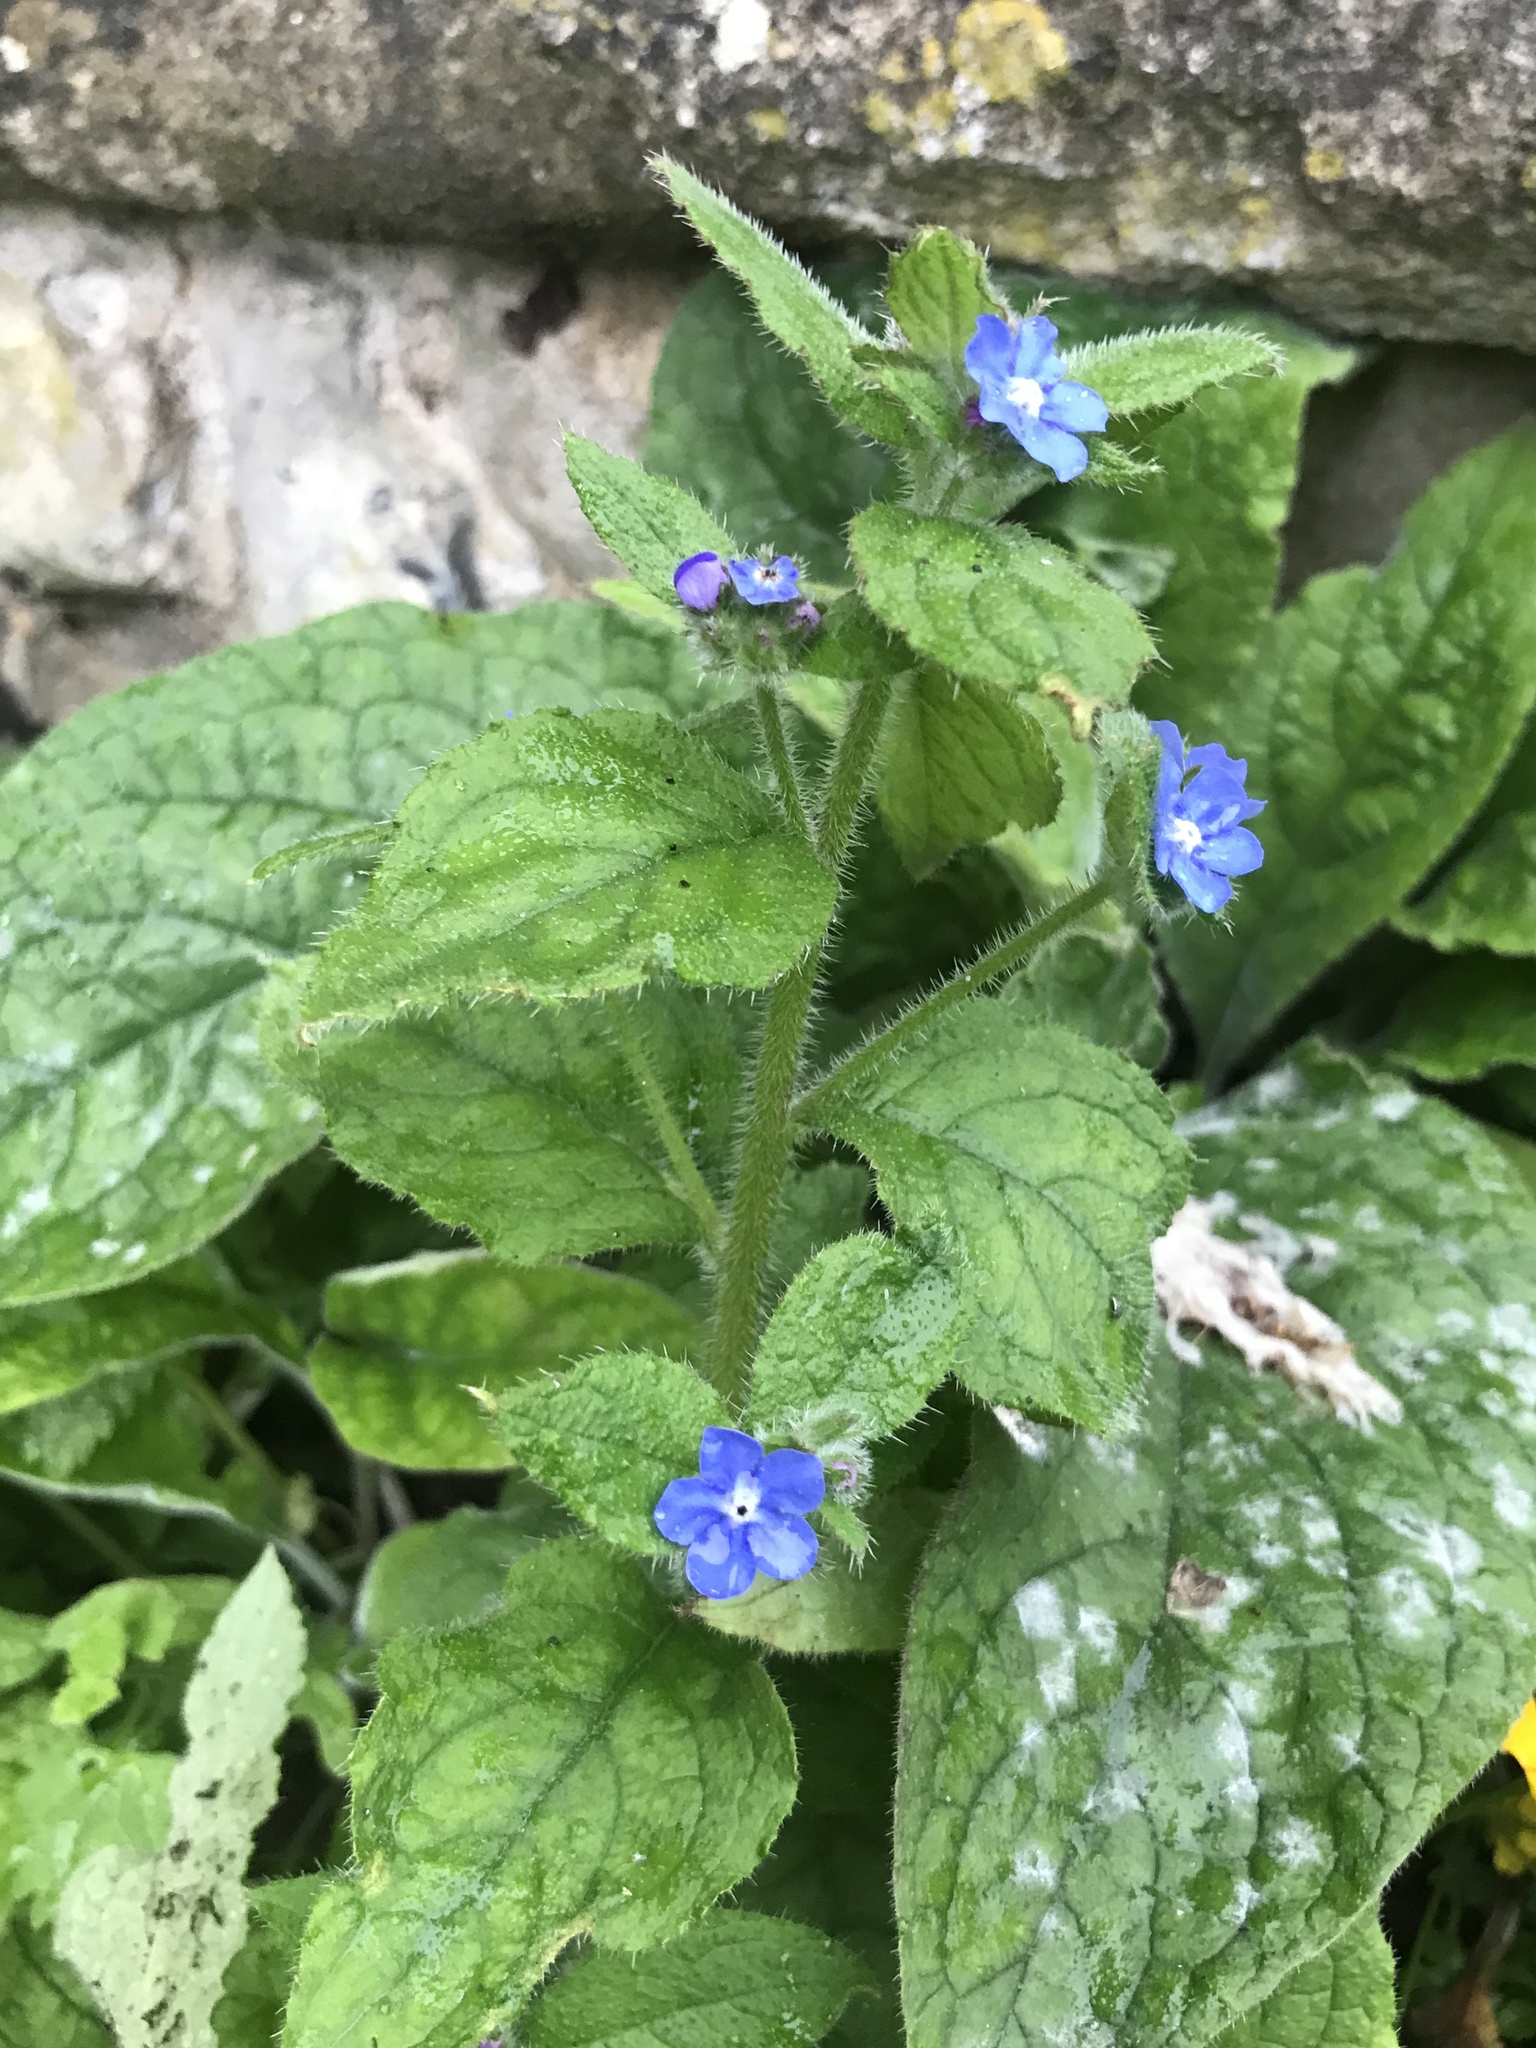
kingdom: Plantae
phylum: Tracheophyta
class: Magnoliopsida
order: Boraginales
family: Boraginaceae
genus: Pentaglottis
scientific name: Pentaglottis sempervirens
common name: Green alkanet
